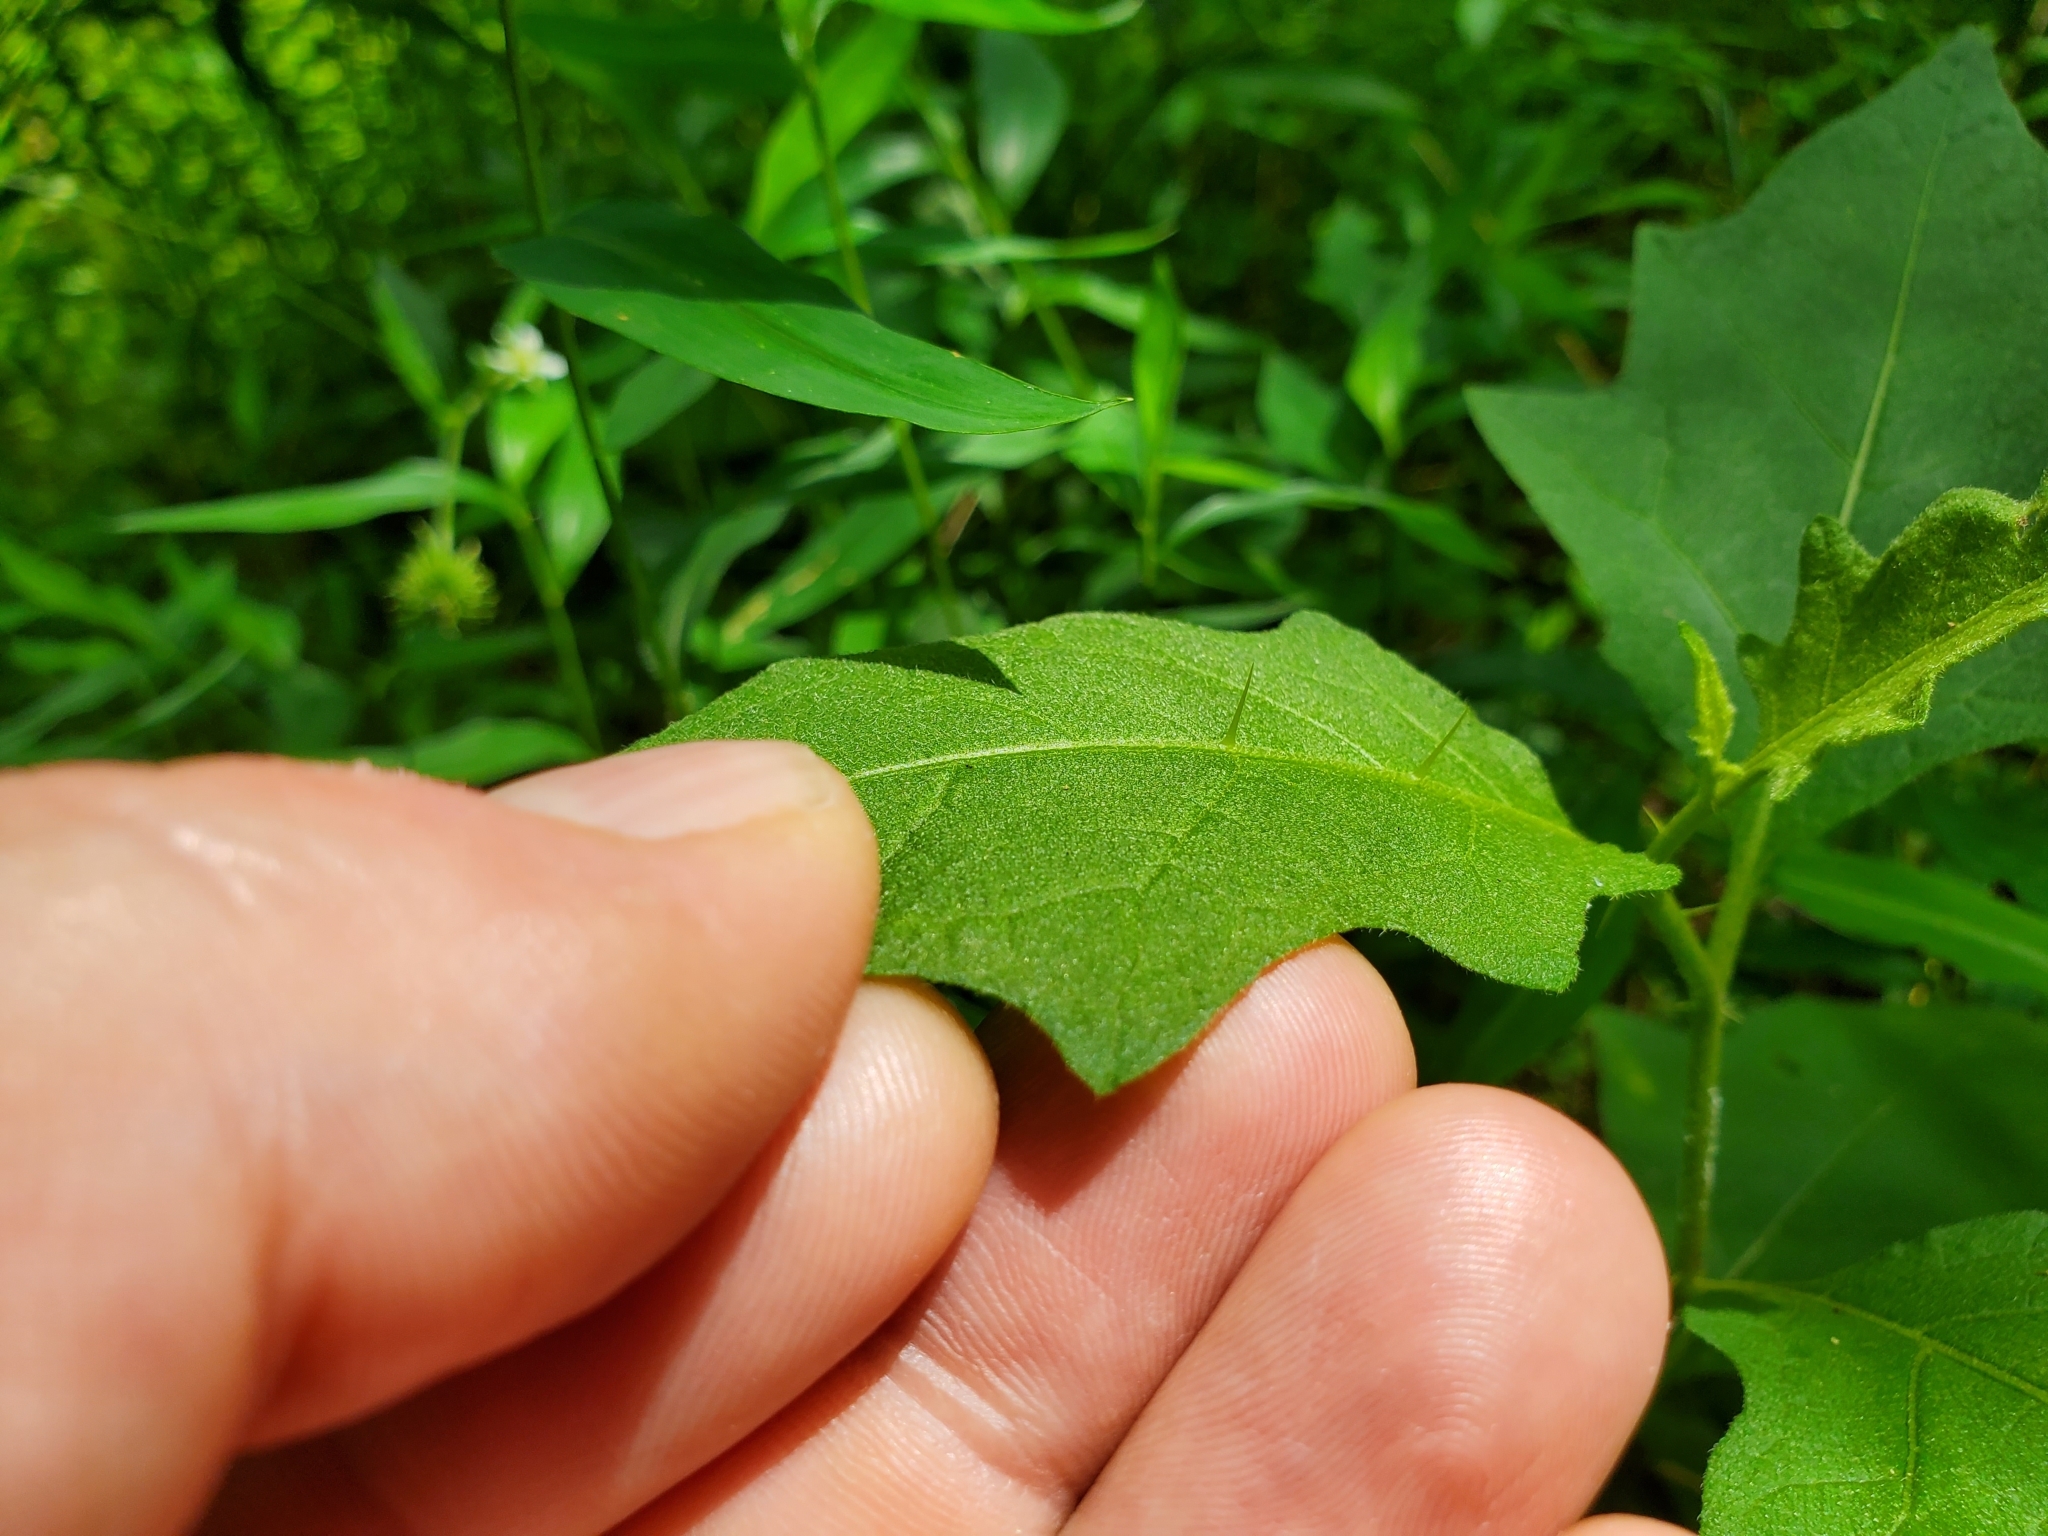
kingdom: Plantae
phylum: Tracheophyta
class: Magnoliopsida
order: Solanales
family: Solanaceae
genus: Solanum
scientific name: Solanum carolinense
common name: Horse-nettle
